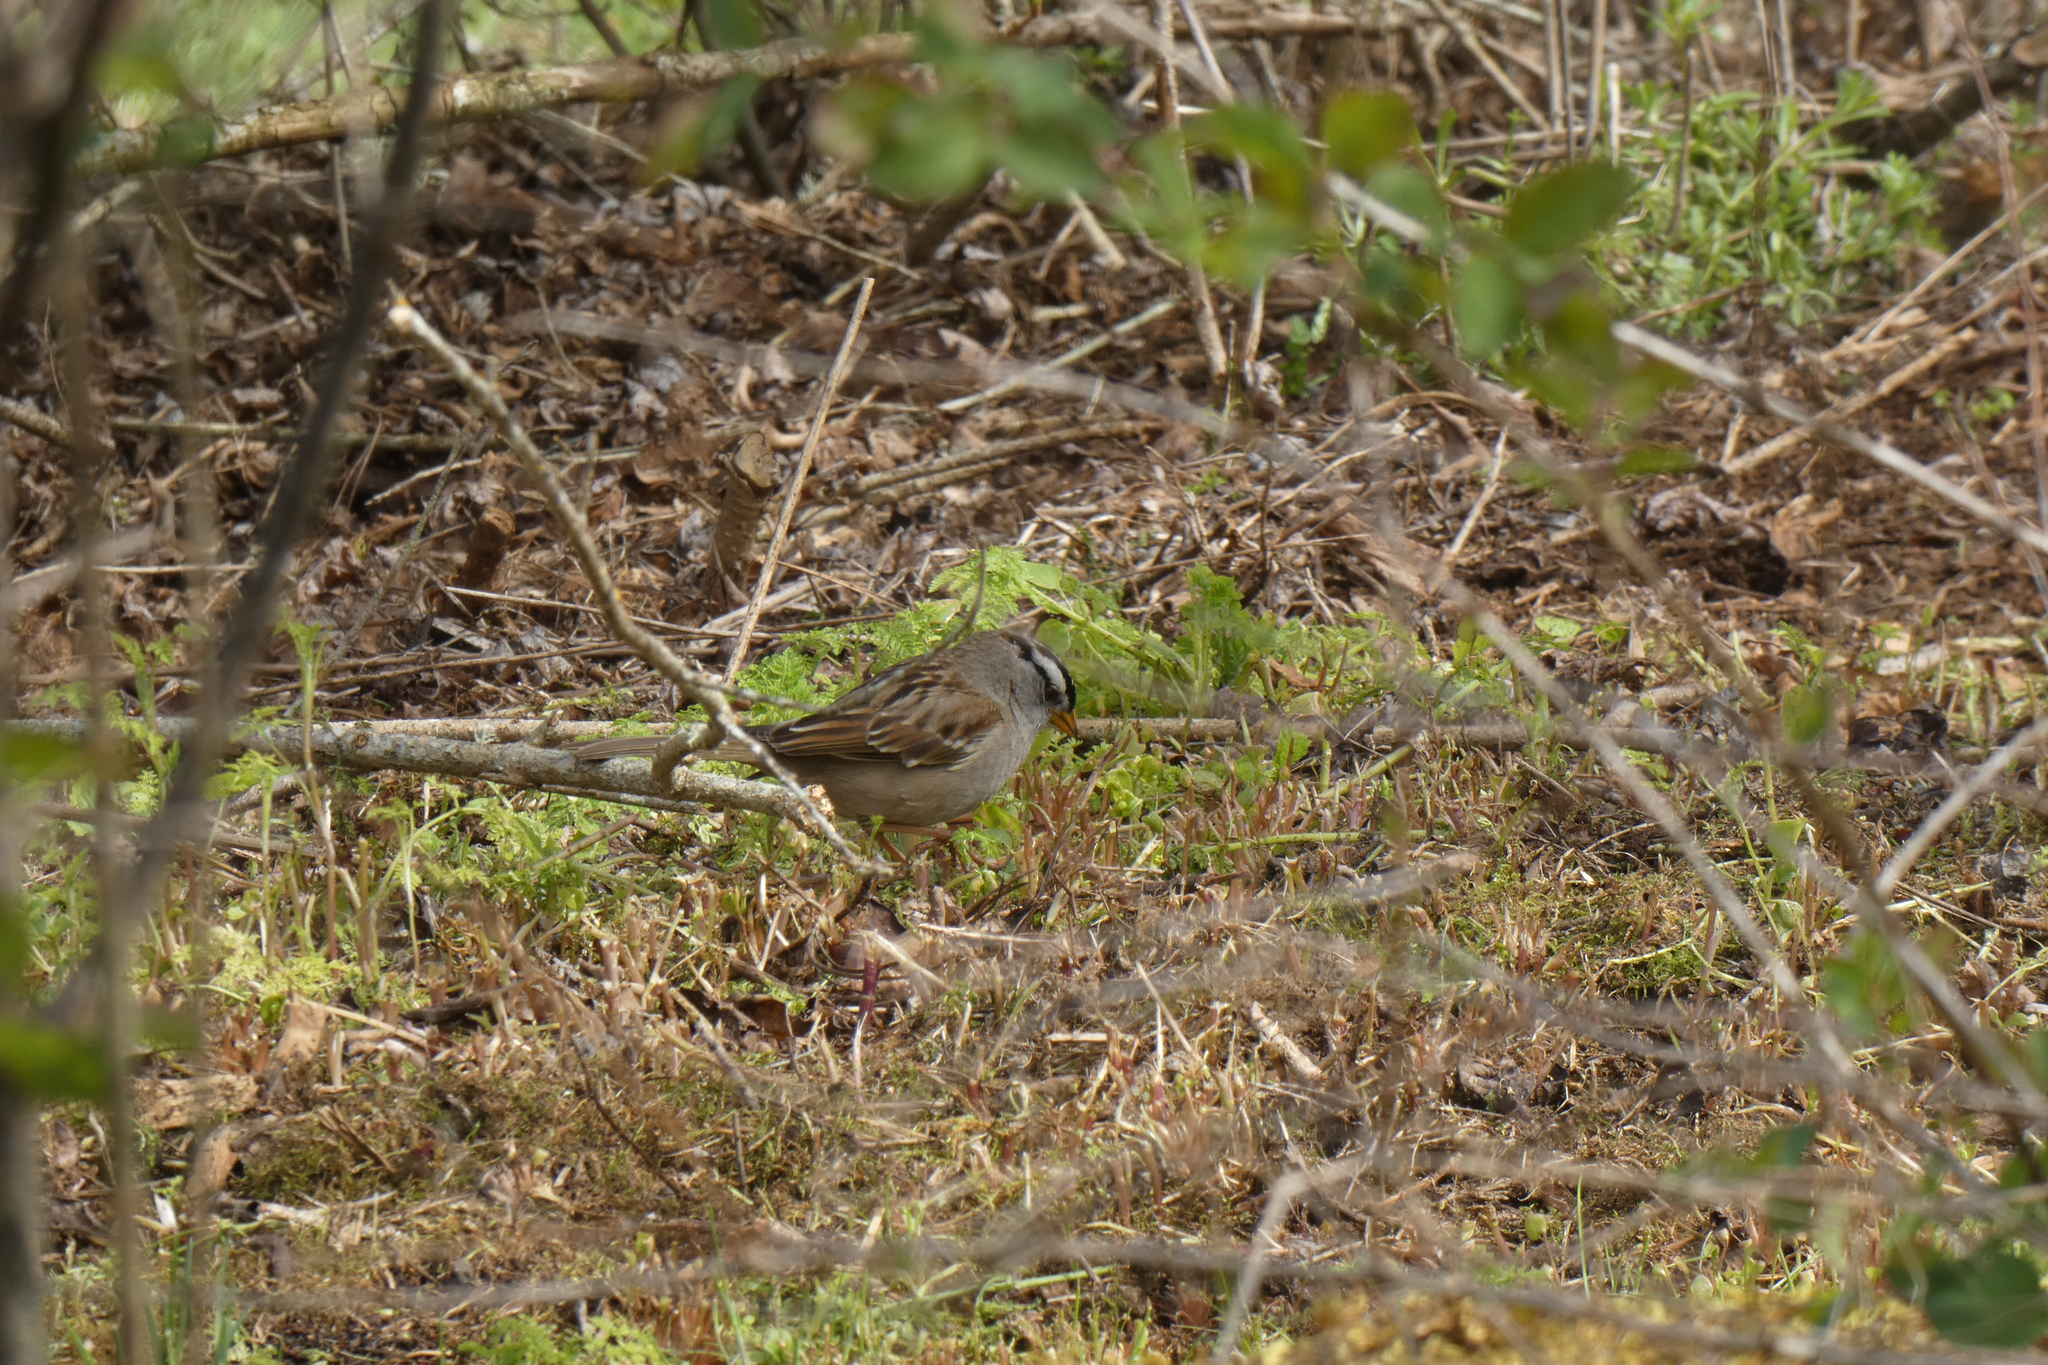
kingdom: Animalia
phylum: Chordata
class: Aves
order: Passeriformes
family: Passerellidae
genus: Zonotrichia
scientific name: Zonotrichia leucophrys
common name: White-crowned sparrow
